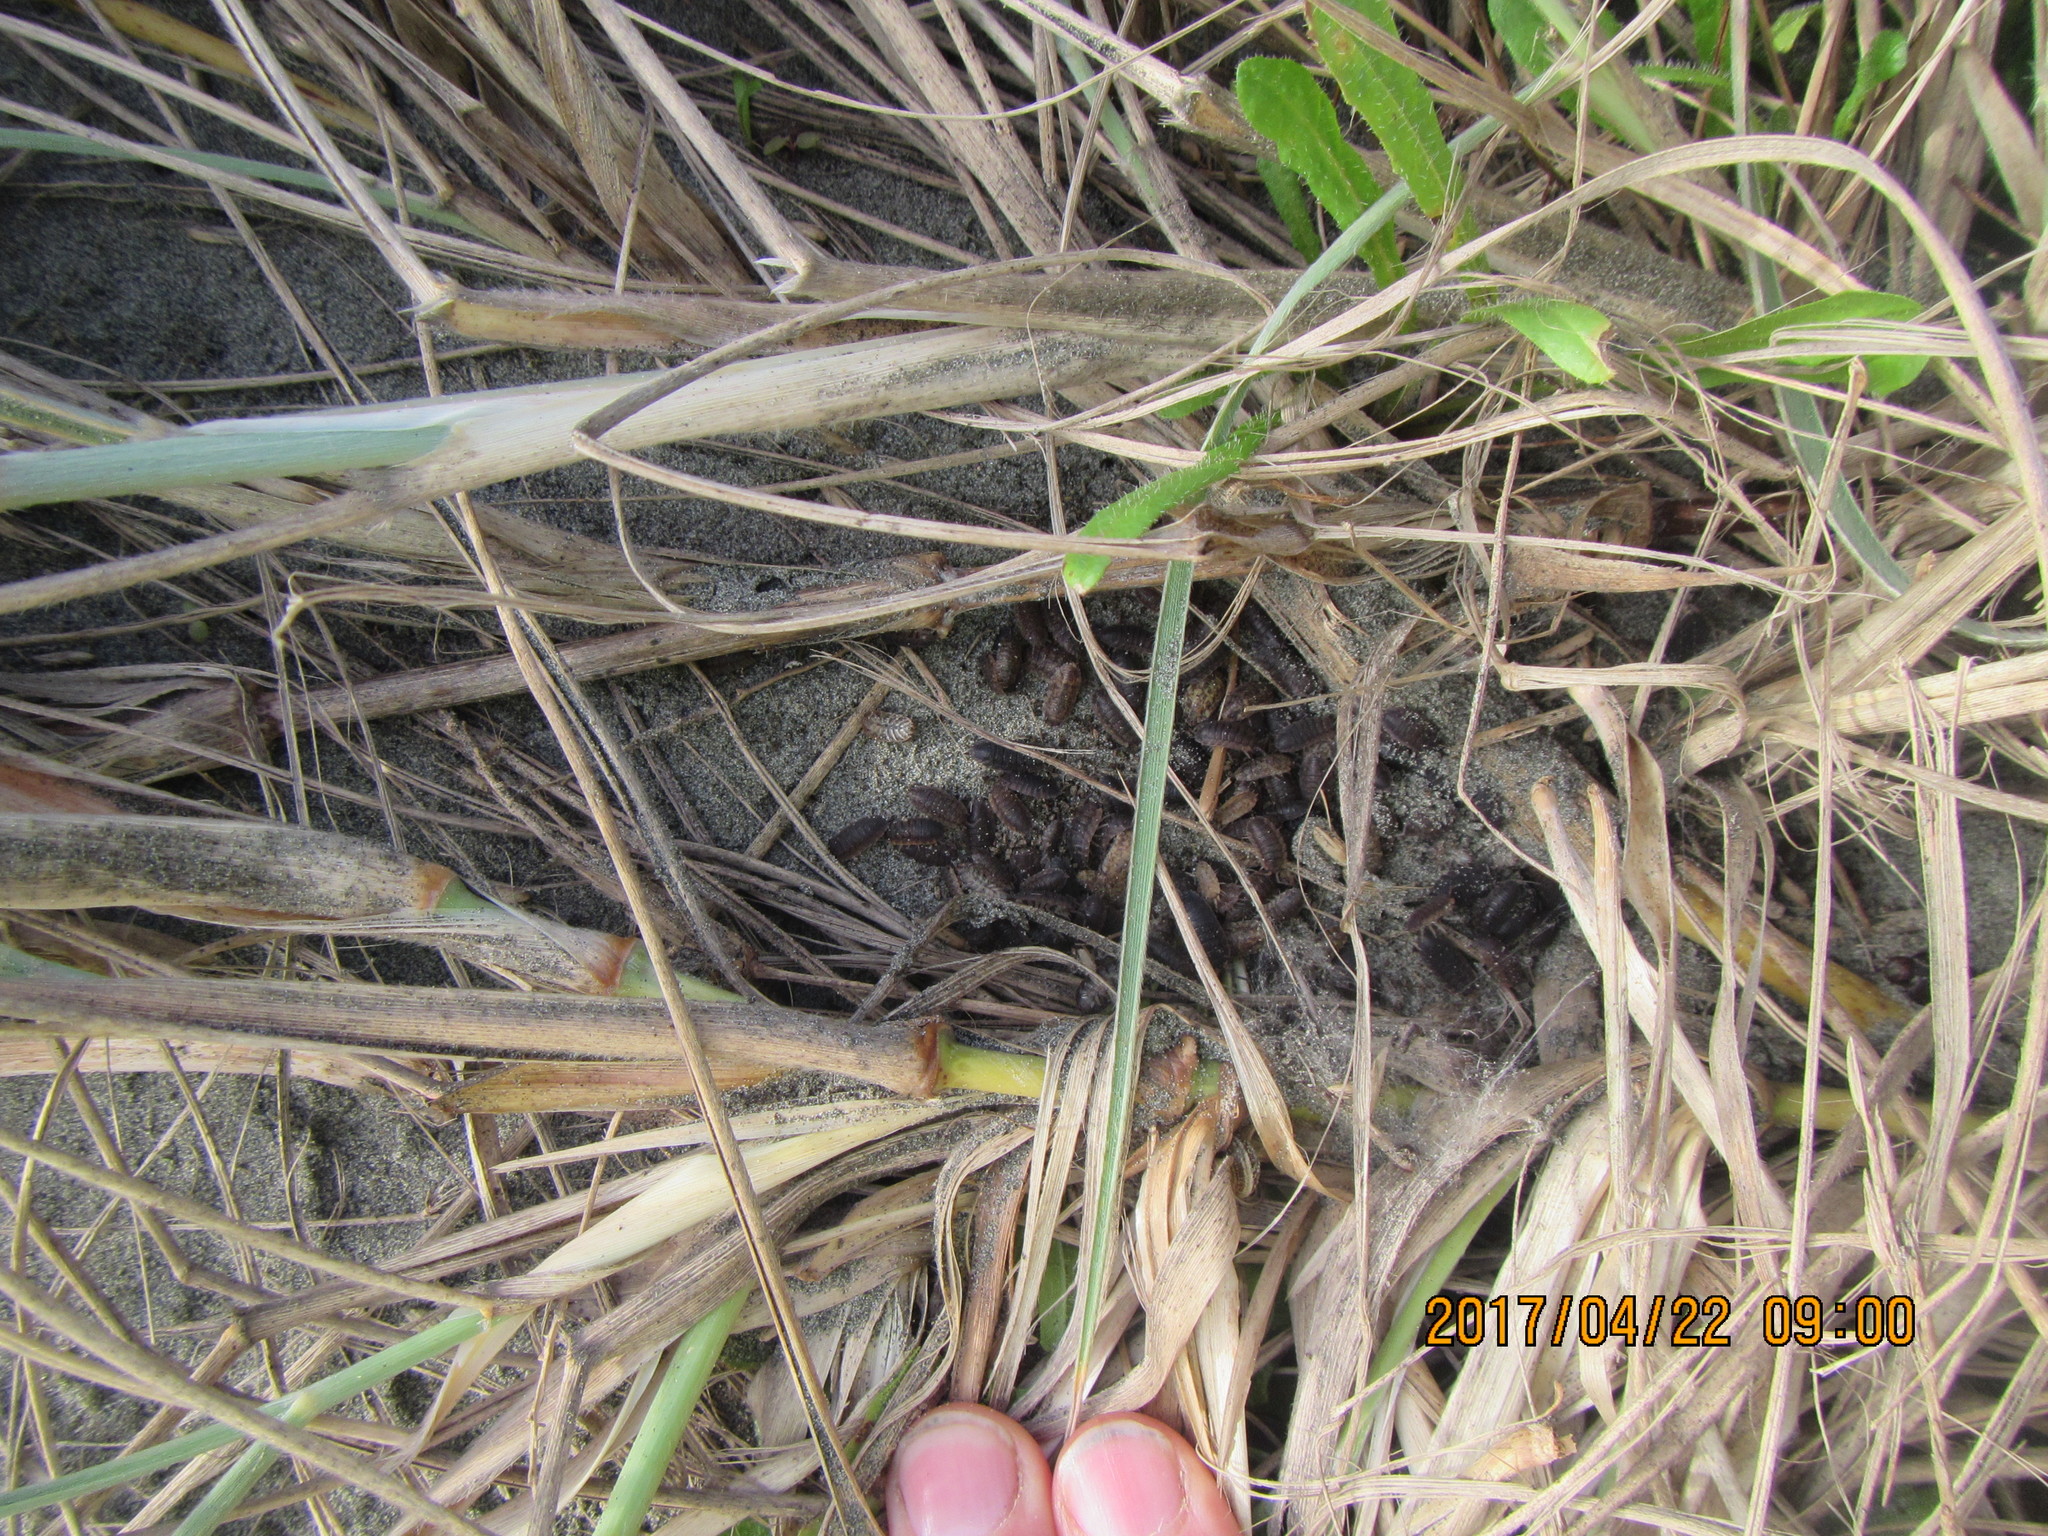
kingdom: Animalia
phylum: Arthropoda
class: Malacostraca
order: Isopoda
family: Porcellionidae
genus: Porcellio
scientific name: Porcellio scaber
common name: Common rough woodlouse
